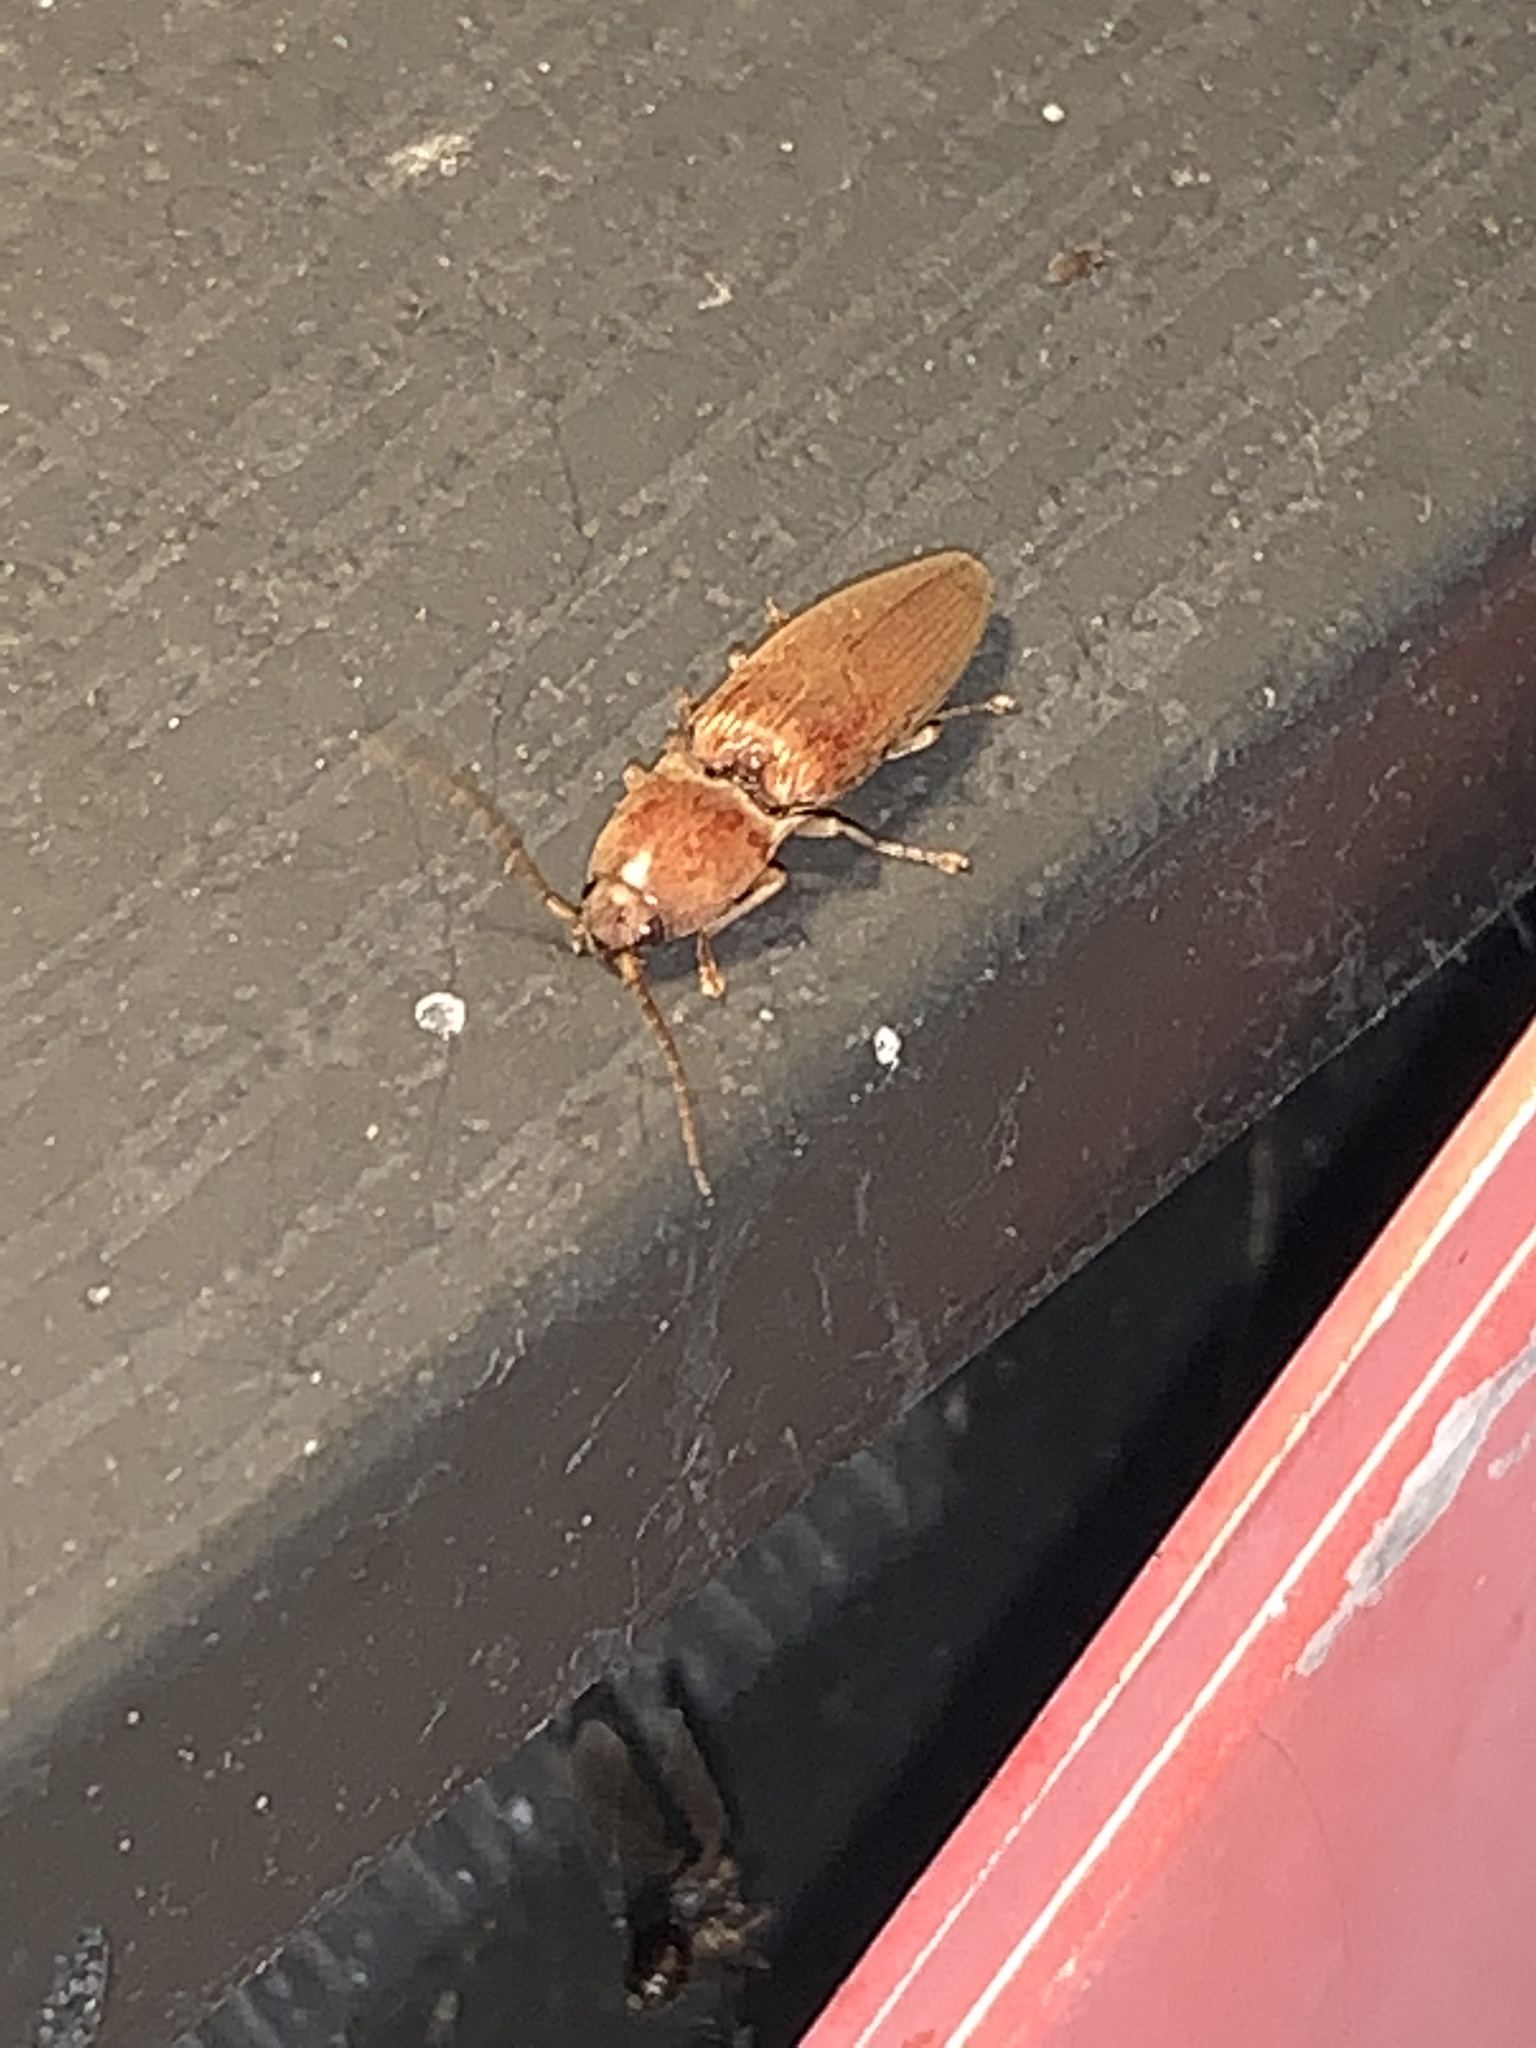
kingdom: Animalia
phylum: Arthropoda
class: Insecta
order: Coleoptera
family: Elateridae
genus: Monocrepidius
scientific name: Monocrepidius lividus
